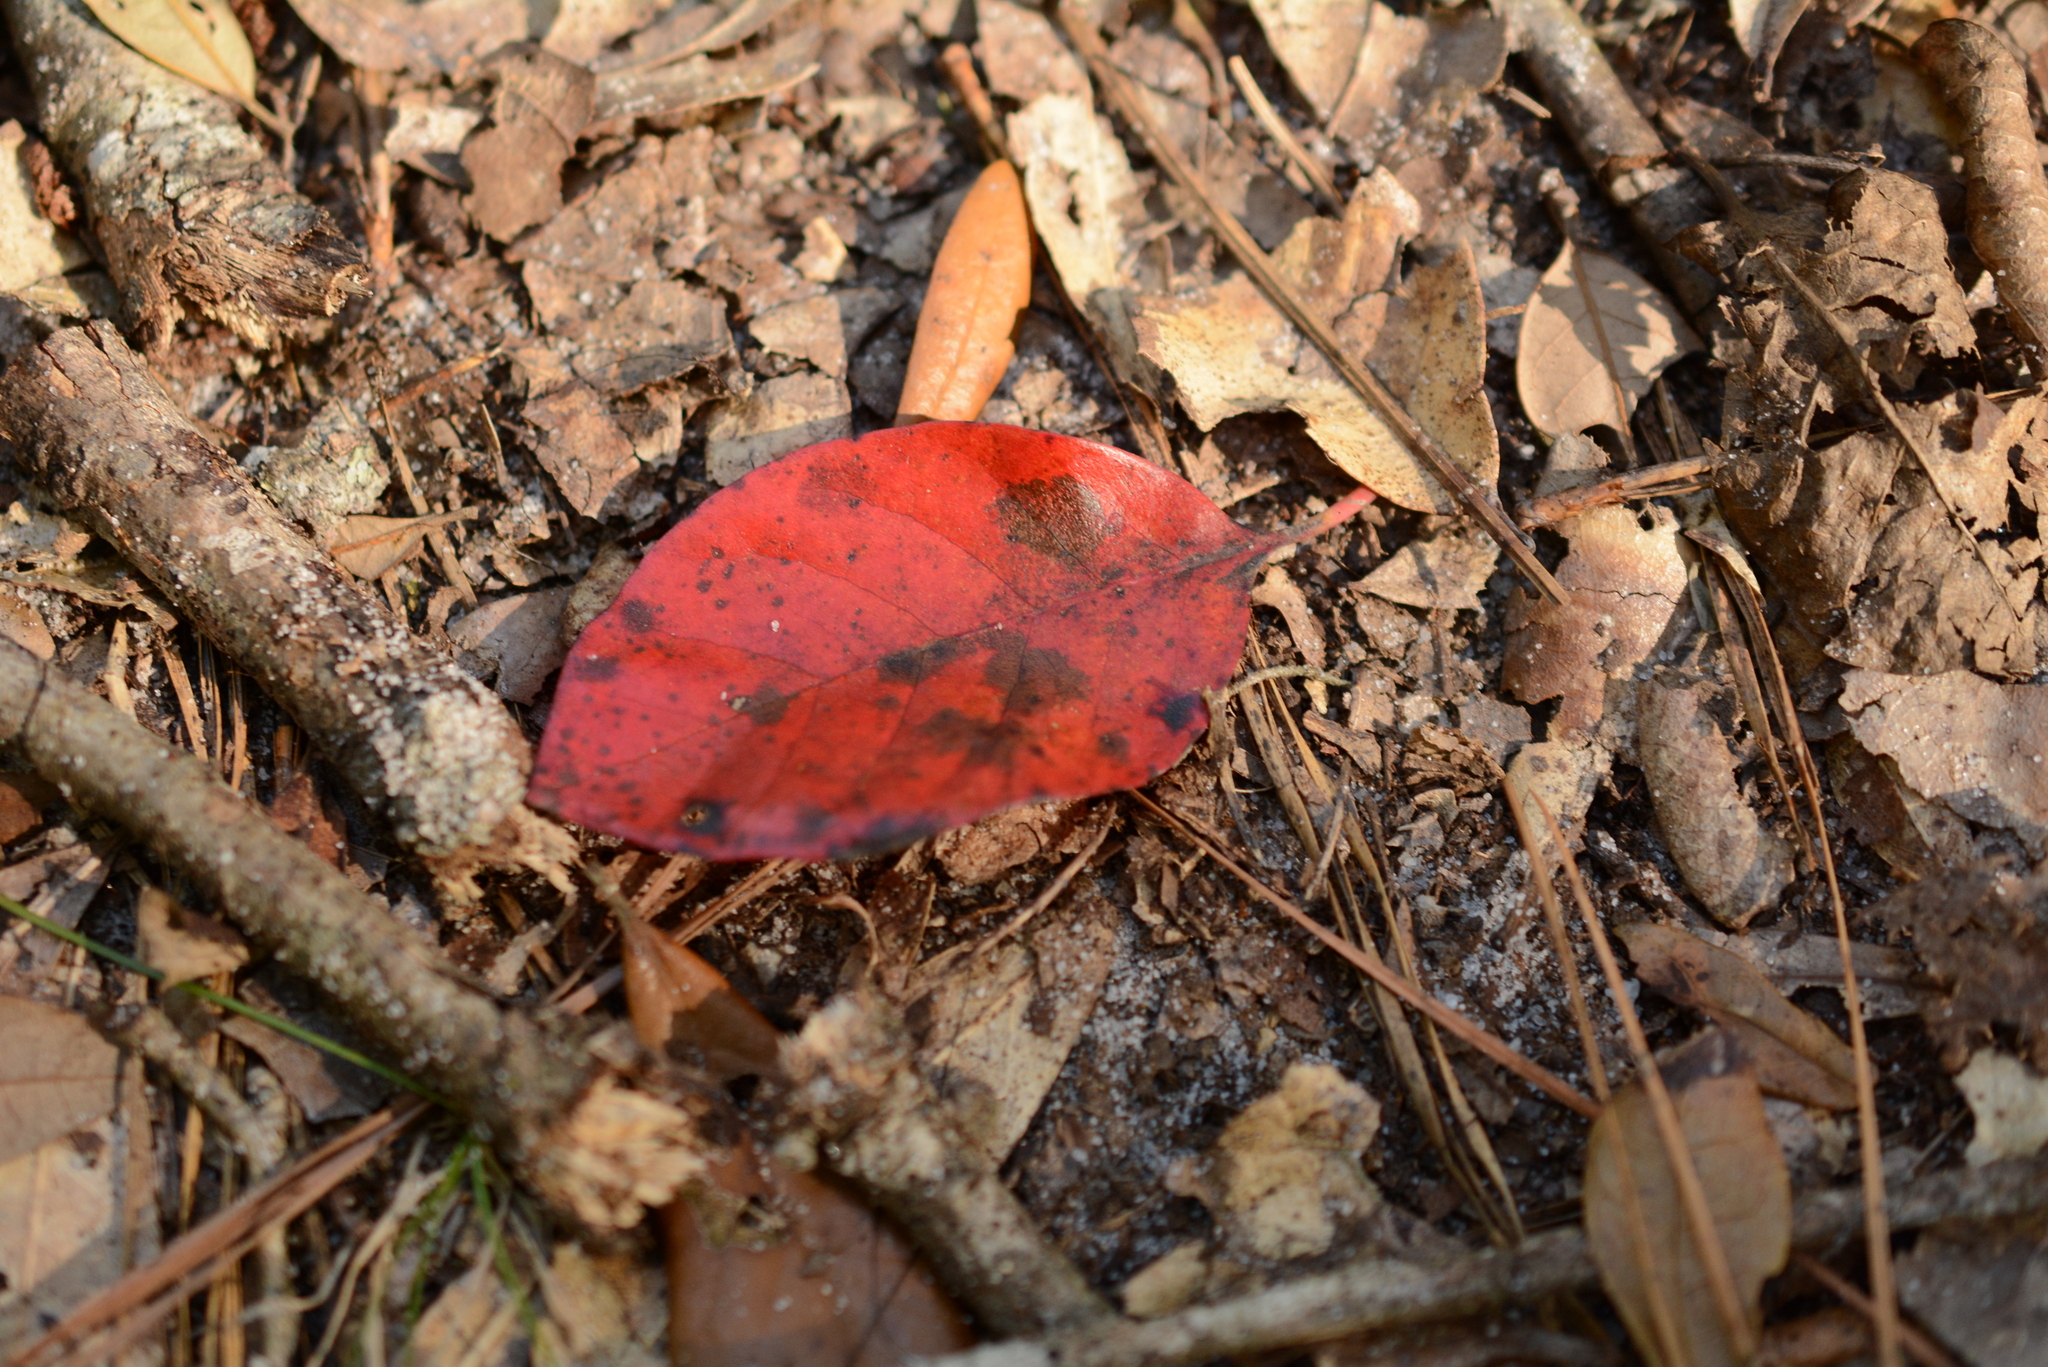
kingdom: Plantae
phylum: Tracheophyta
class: Magnoliopsida
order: Cornales
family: Nyssaceae
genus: Nyssa
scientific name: Nyssa sylvatica
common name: Black tupelo
